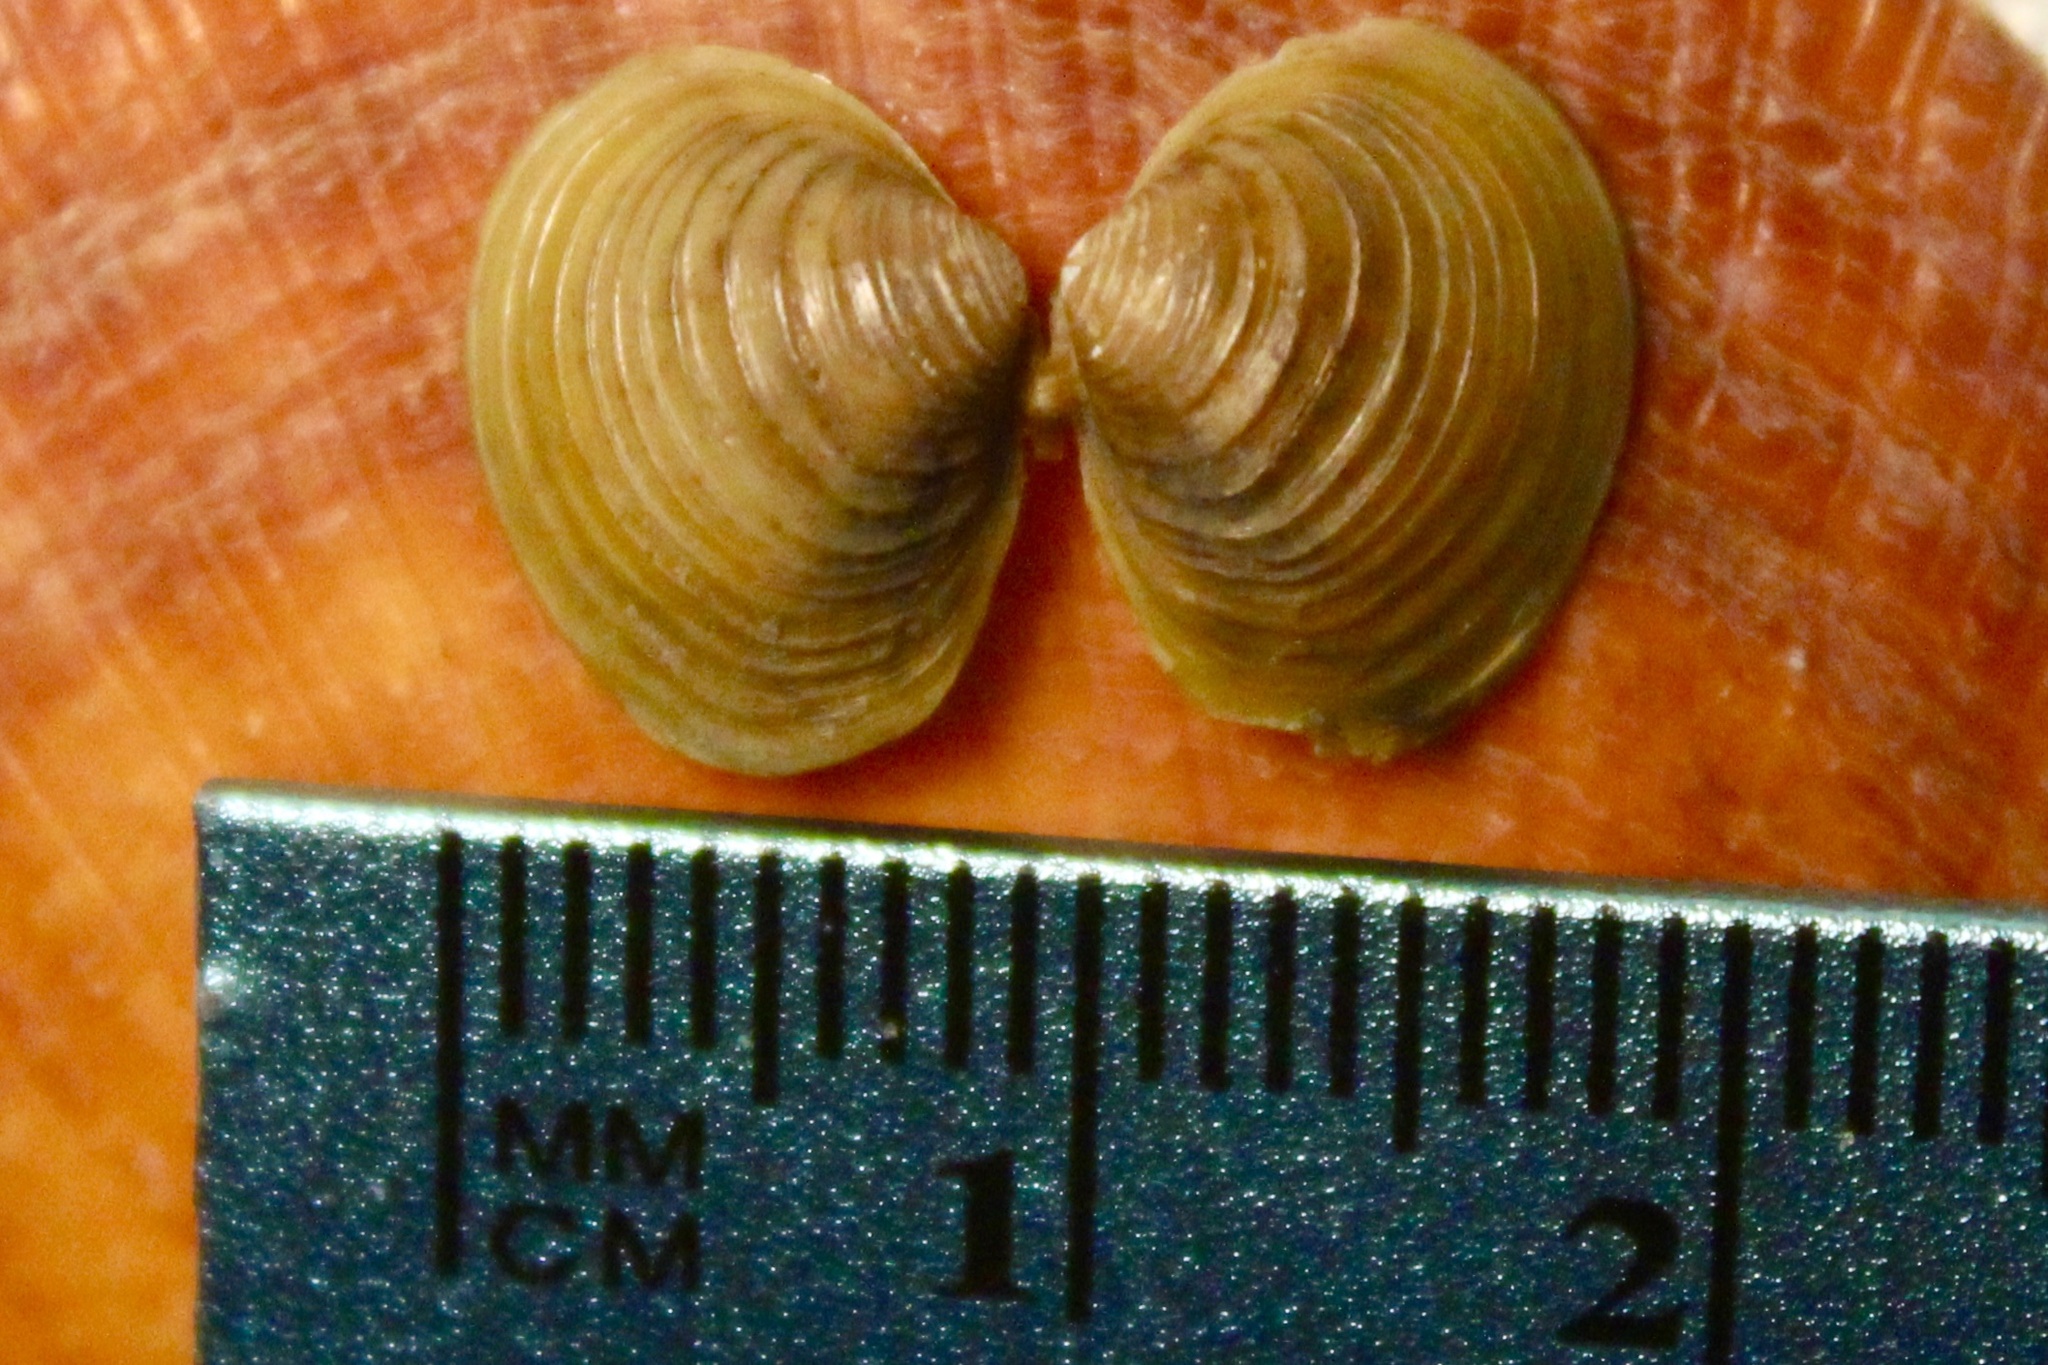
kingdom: Animalia
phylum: Mollusca
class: Bivalvia
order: Venerida
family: Cyrenidae
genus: Corbicula
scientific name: Corbicula fluminea
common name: Asian clam
